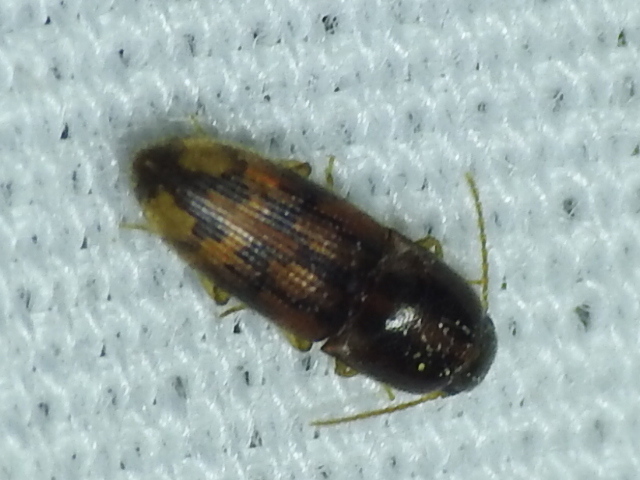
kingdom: Animalia
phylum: Arthropoda
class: Insecta
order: Coleoptera
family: Elateridae
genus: Monocrepidius
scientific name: Monocrepidius bellus
